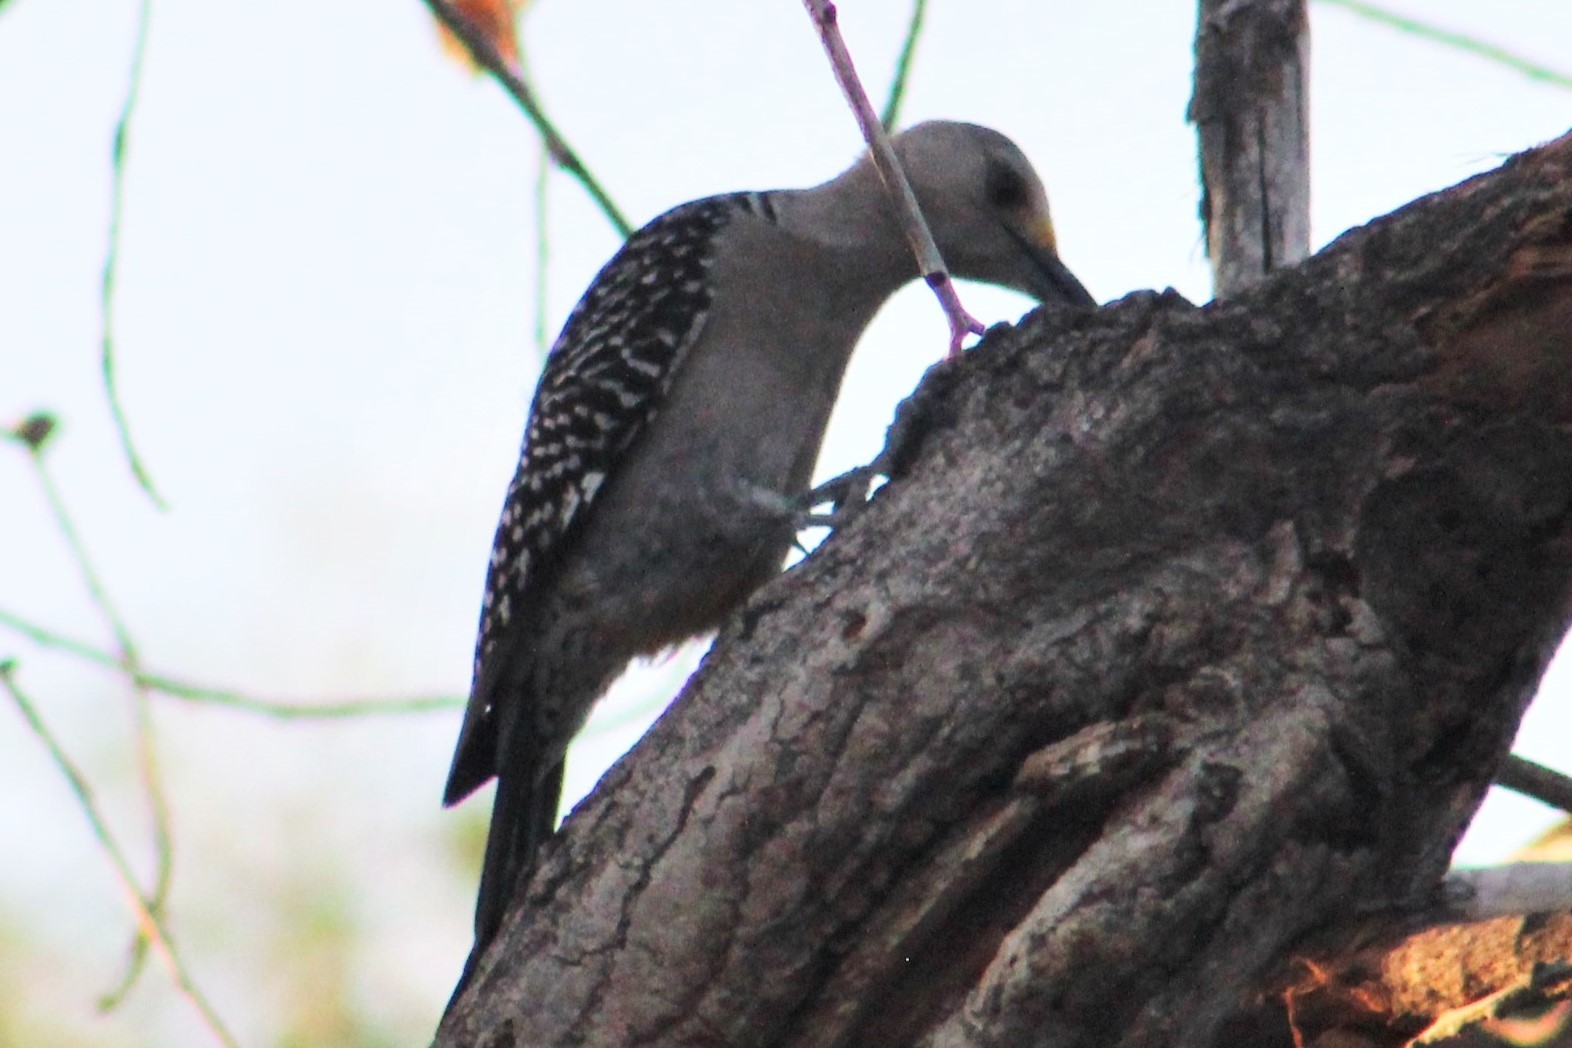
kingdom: Animalia
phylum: Chordata
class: Aves
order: Piciformes
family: Picidae
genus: Melanerpes
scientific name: Melanerpes aurifrons
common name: Golden-fronted woodpecker
